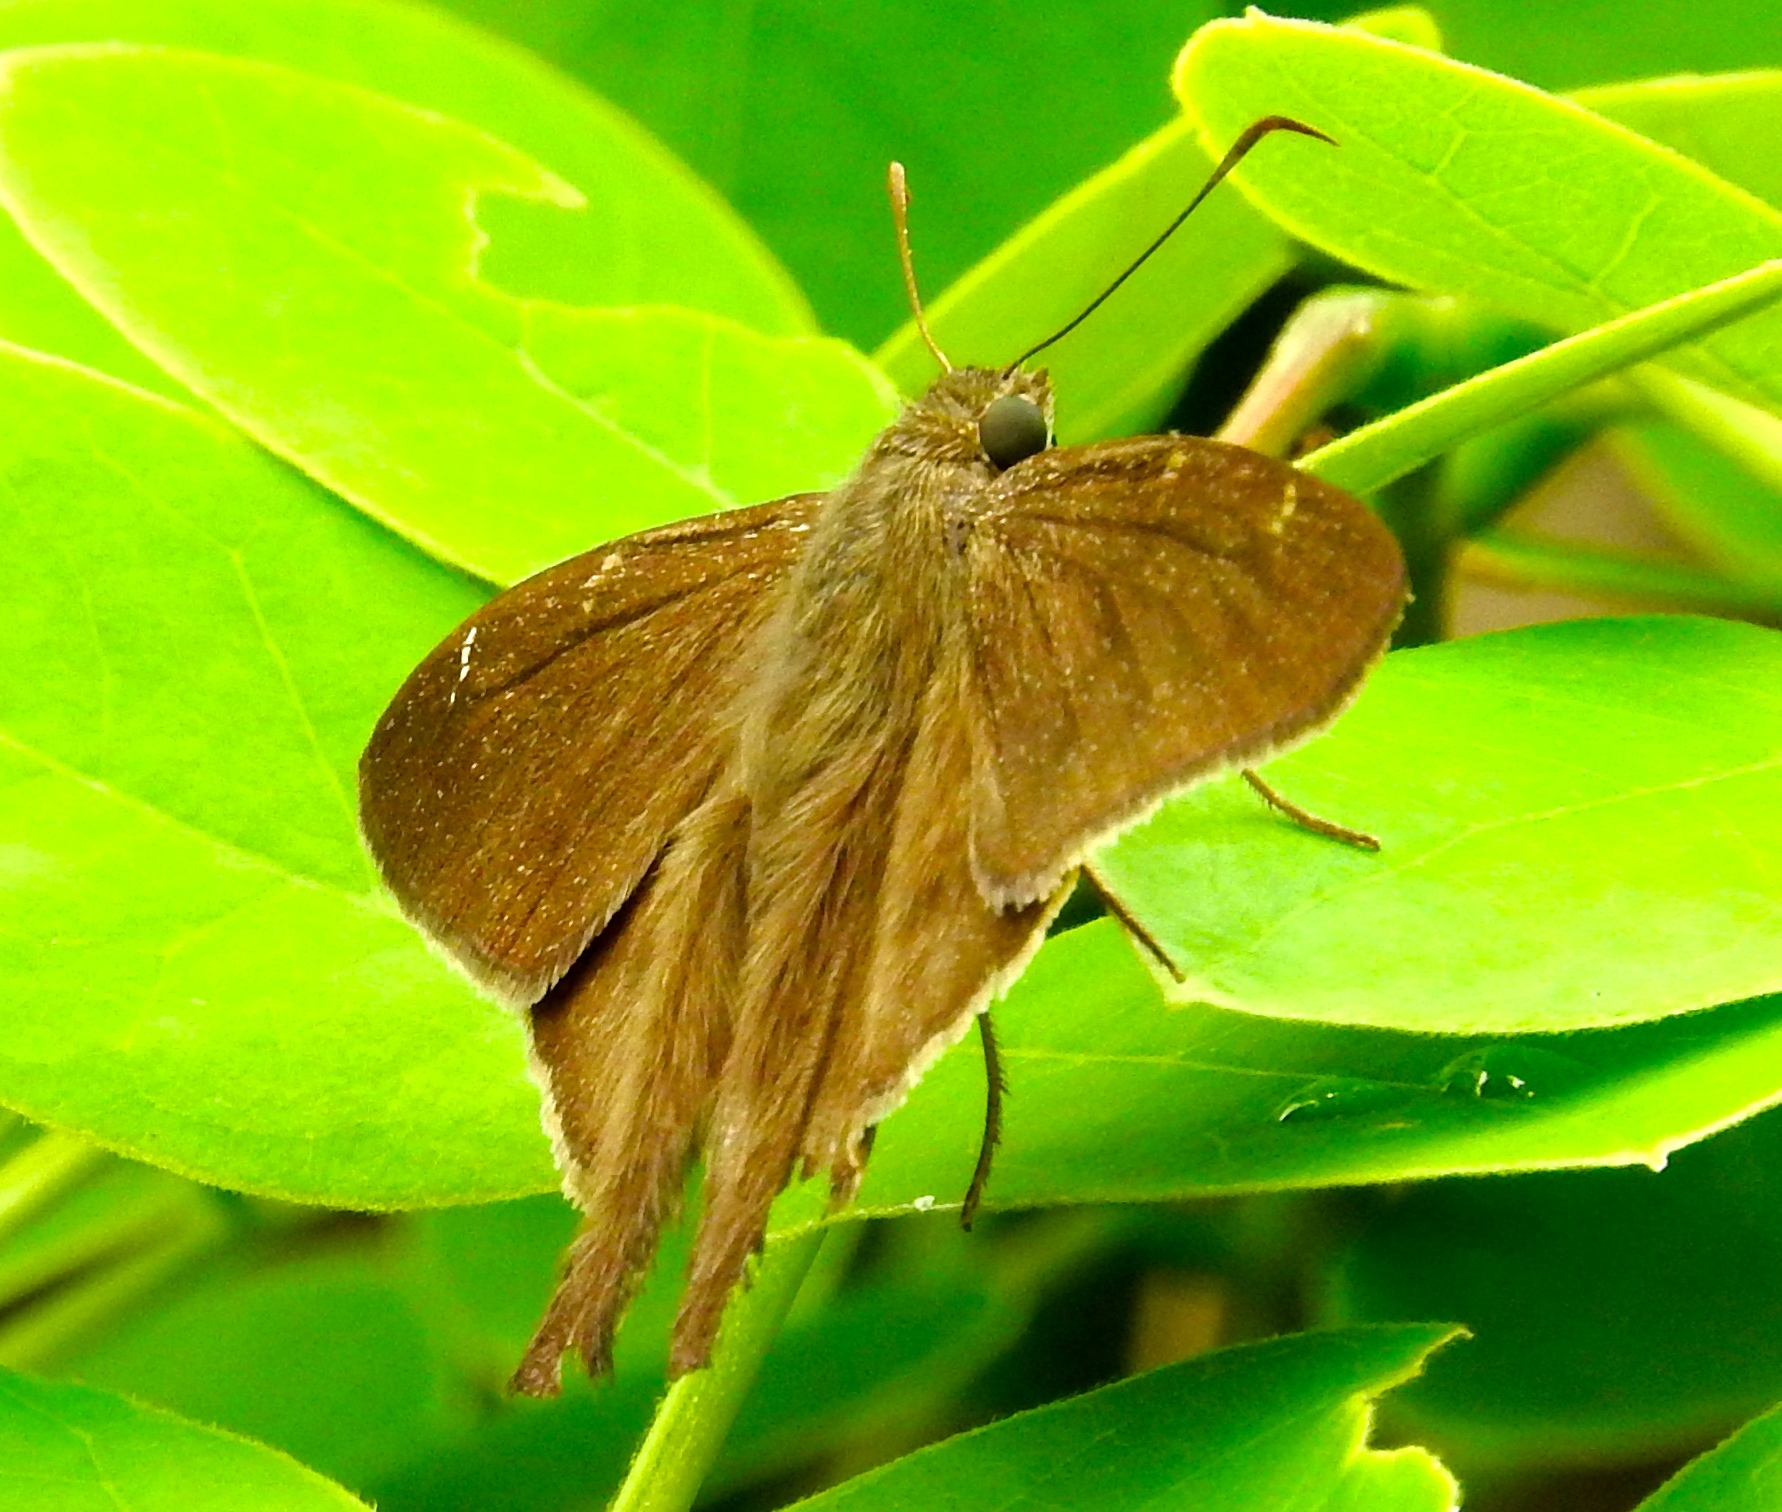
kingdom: Animalia
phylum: Arthropoda
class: Insecta
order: Lepidoptera
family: Hesperiidae
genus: Urbanus
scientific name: Urbanus simplicius
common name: Plain longtail
